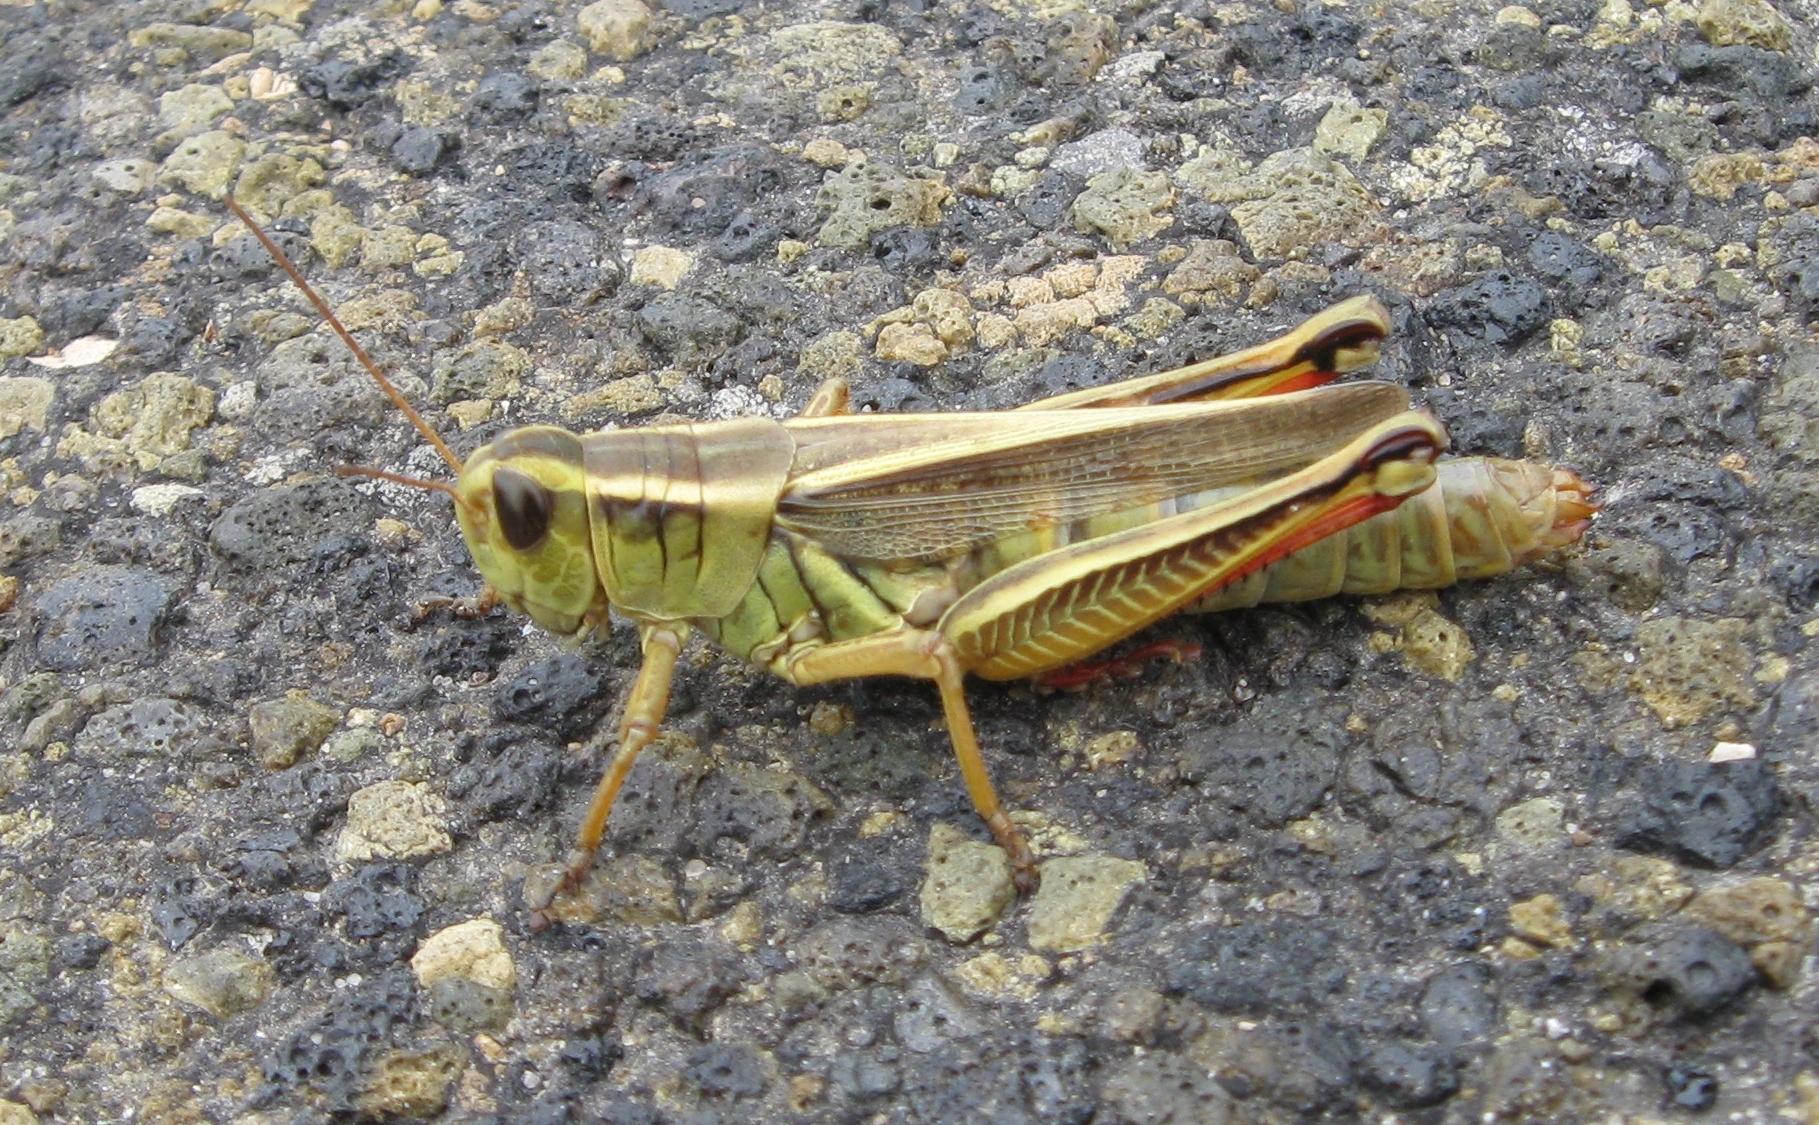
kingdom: Animalia
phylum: Arthropoda
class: Insecta
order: Orthoptera
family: Acrididae
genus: Melanoplus
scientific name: Melanoplus bivittatus
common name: Two-striped grasshopper
